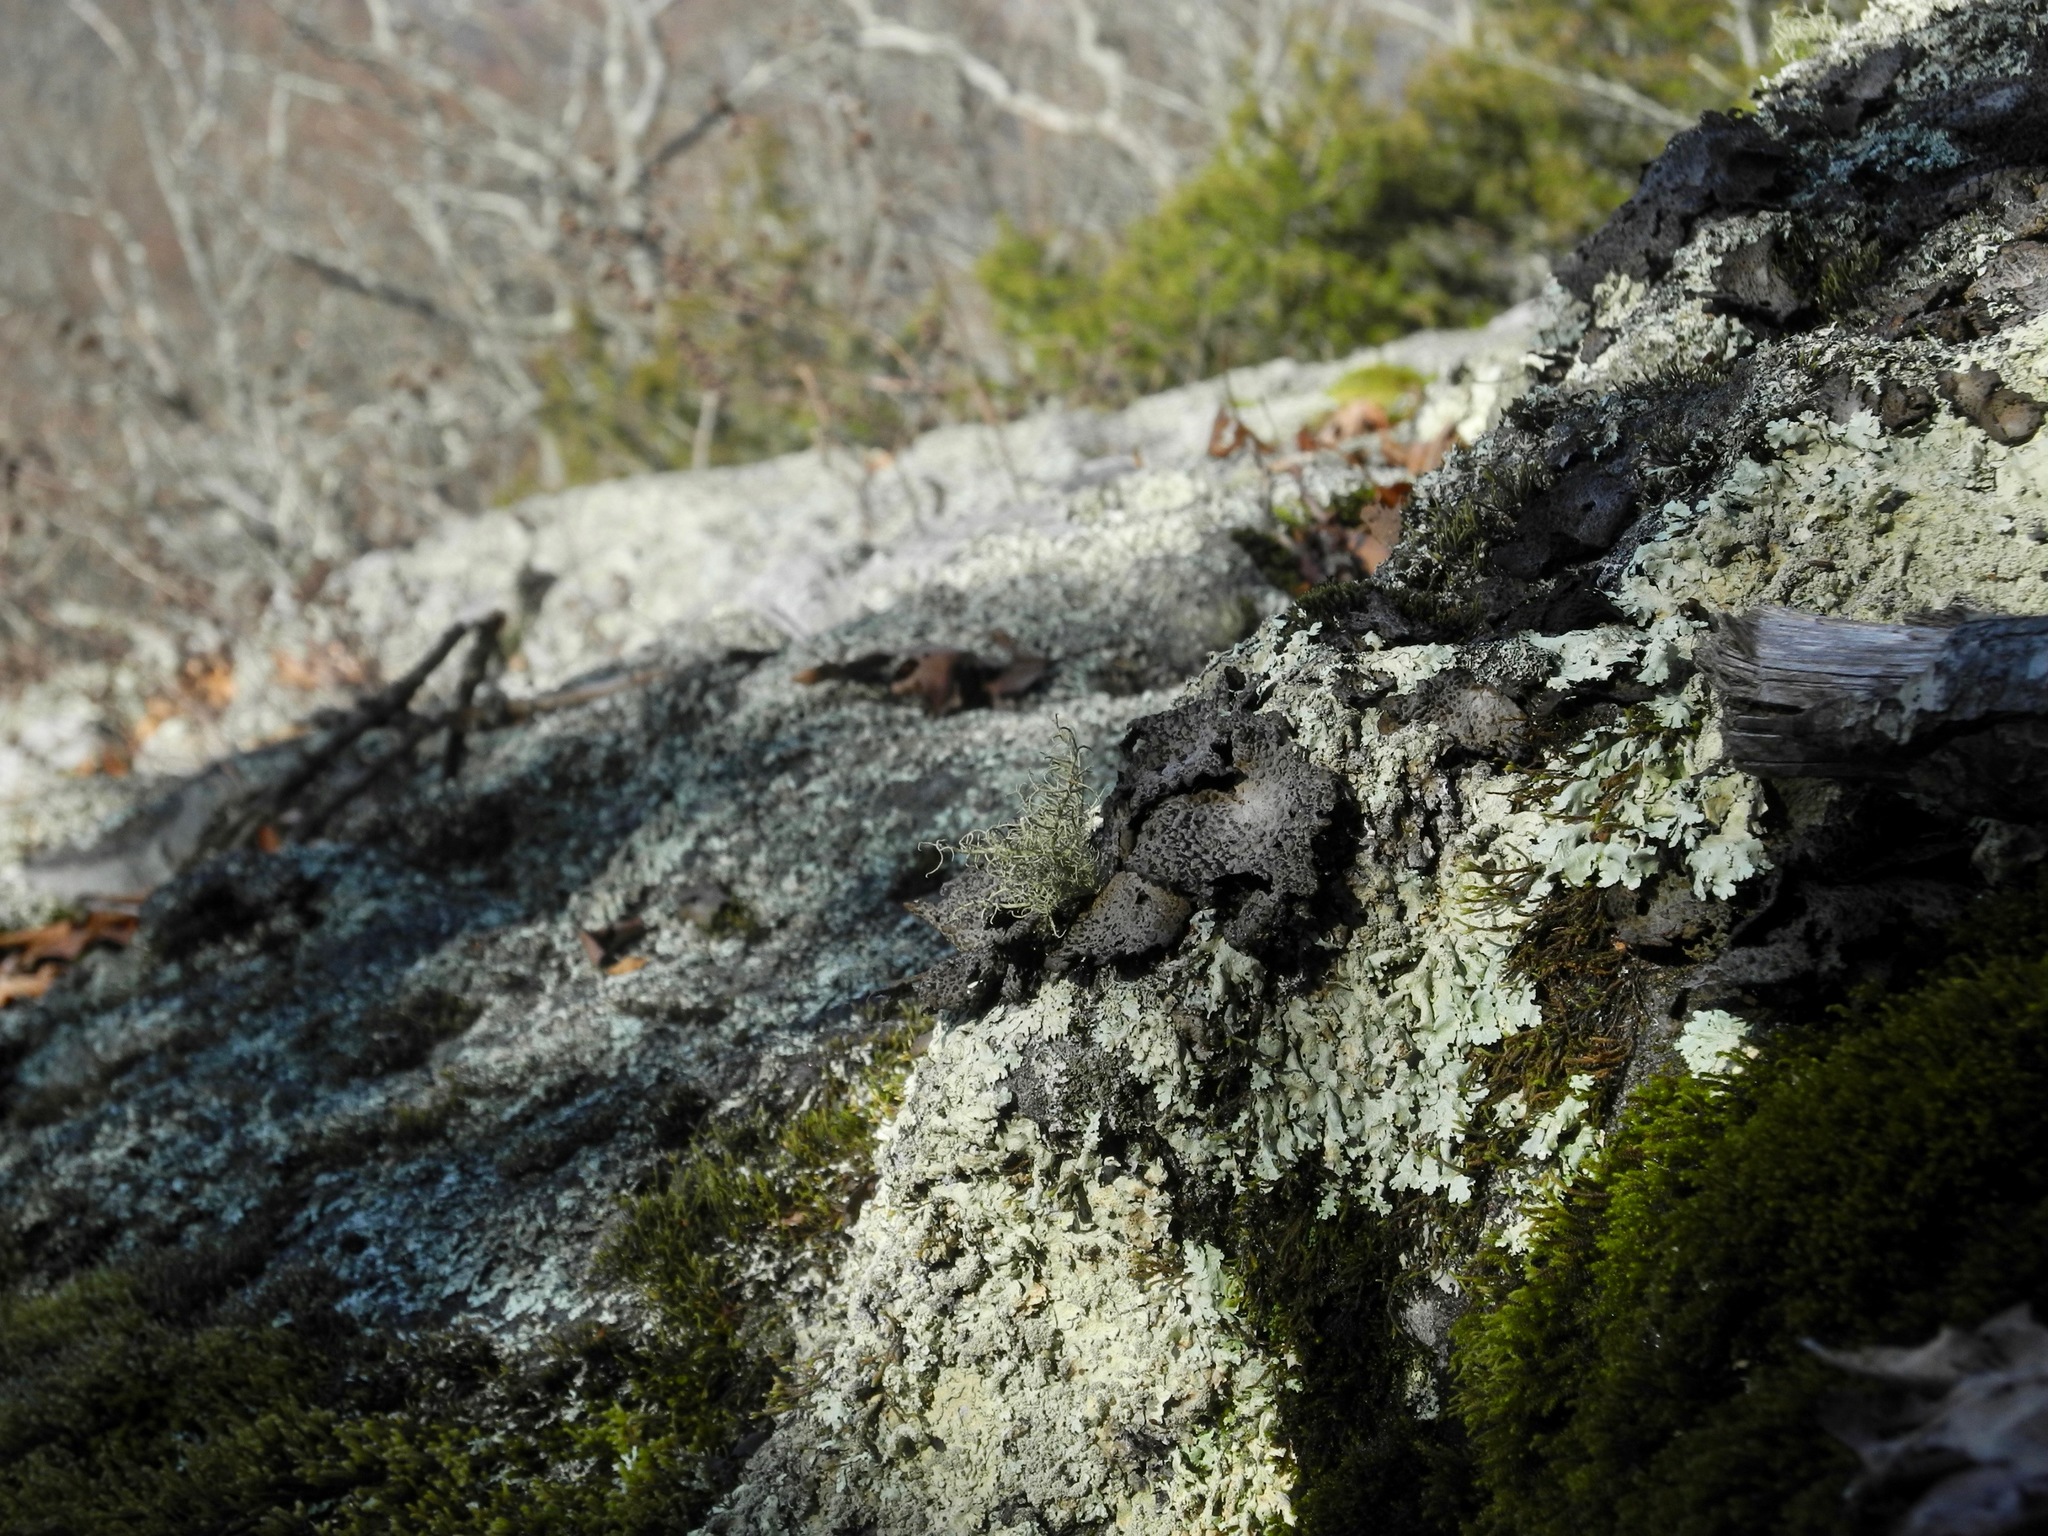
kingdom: Fungi
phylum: Ascomycota
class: Lecanoromycetes
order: Umbilicariales
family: Umbilicariaceae
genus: Lasallia
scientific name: Lasallia papulosa
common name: Common toadskin lichen
